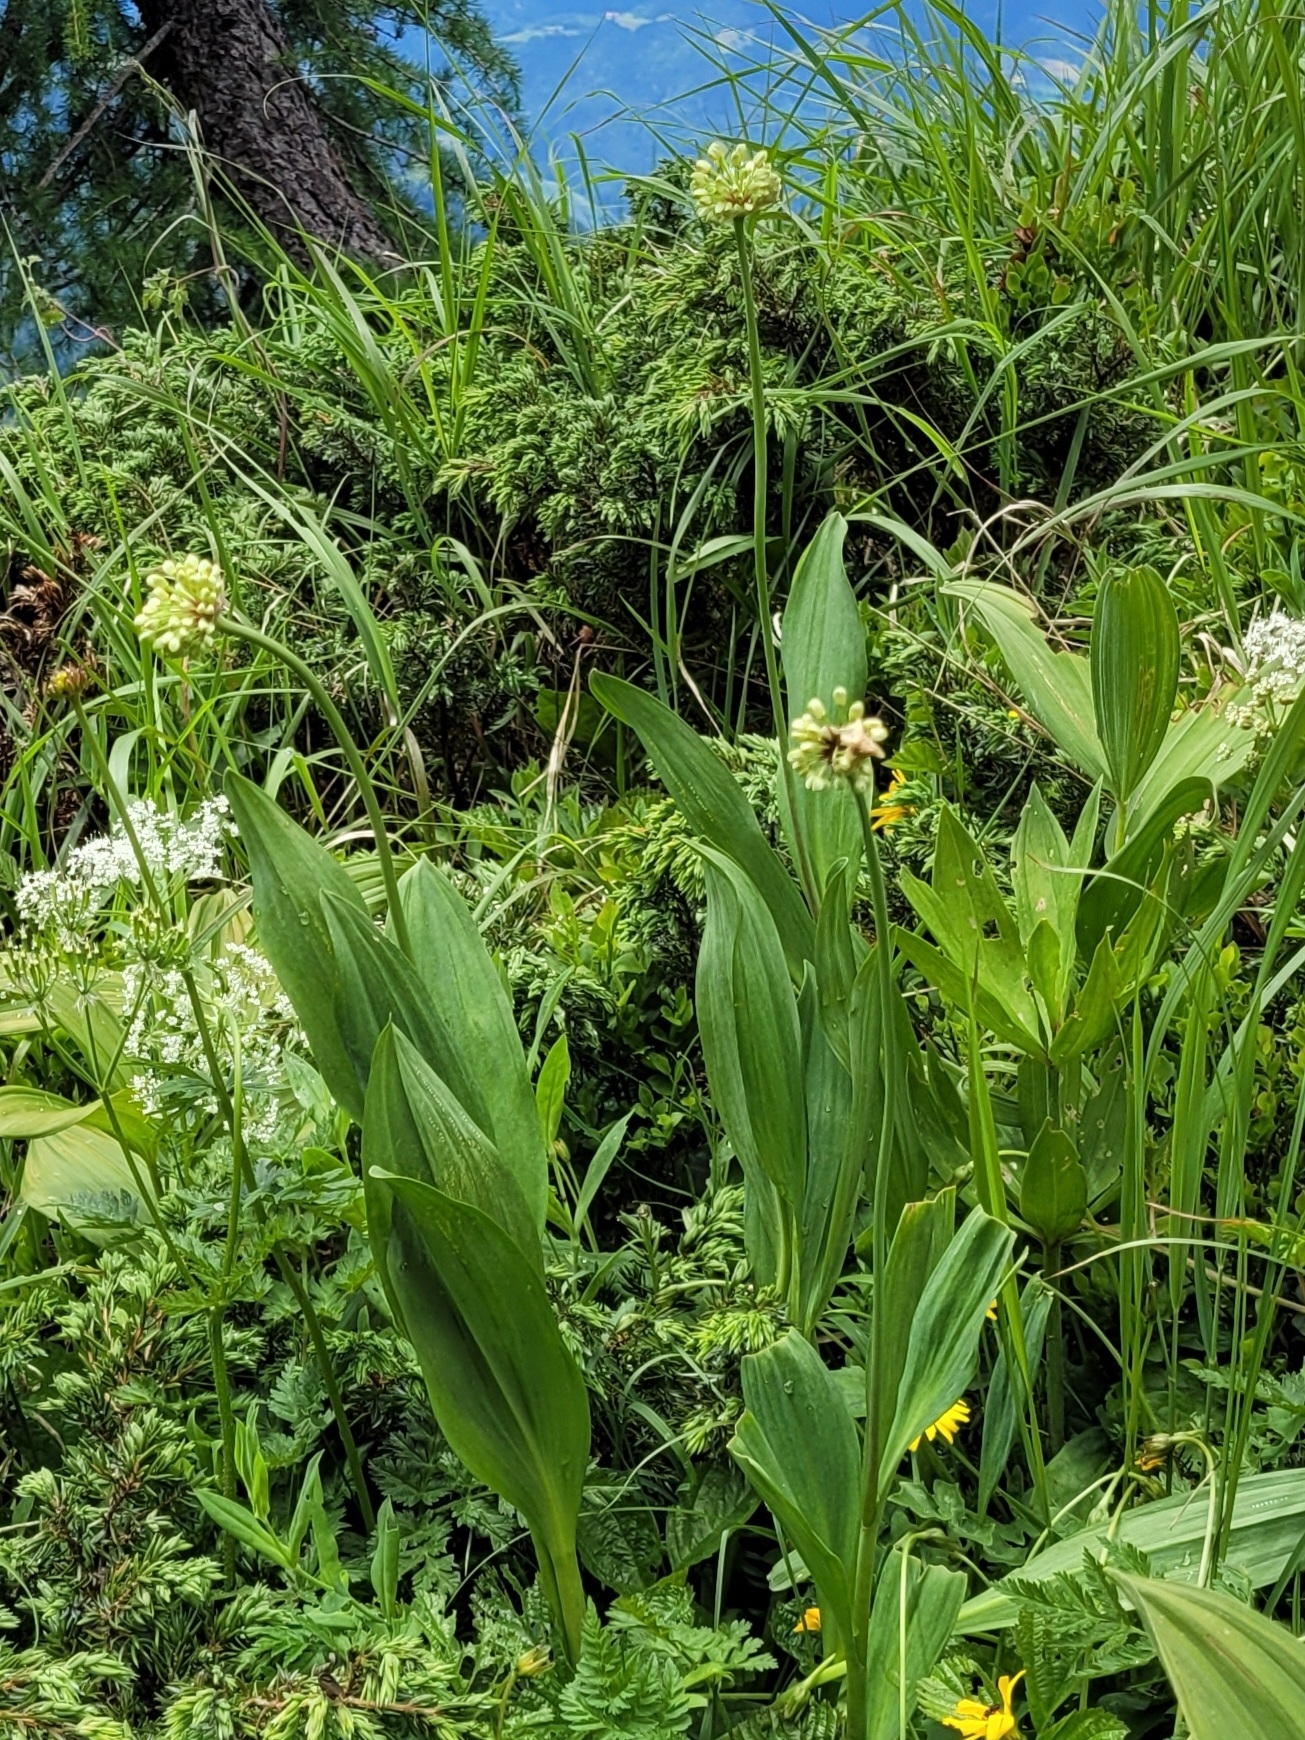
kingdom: Plantae
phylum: Tracheophyta
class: Liliopsida
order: Asparagales
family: Amaryllidaceae
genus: Allium
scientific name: Allium victorialis
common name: Alpine leek
